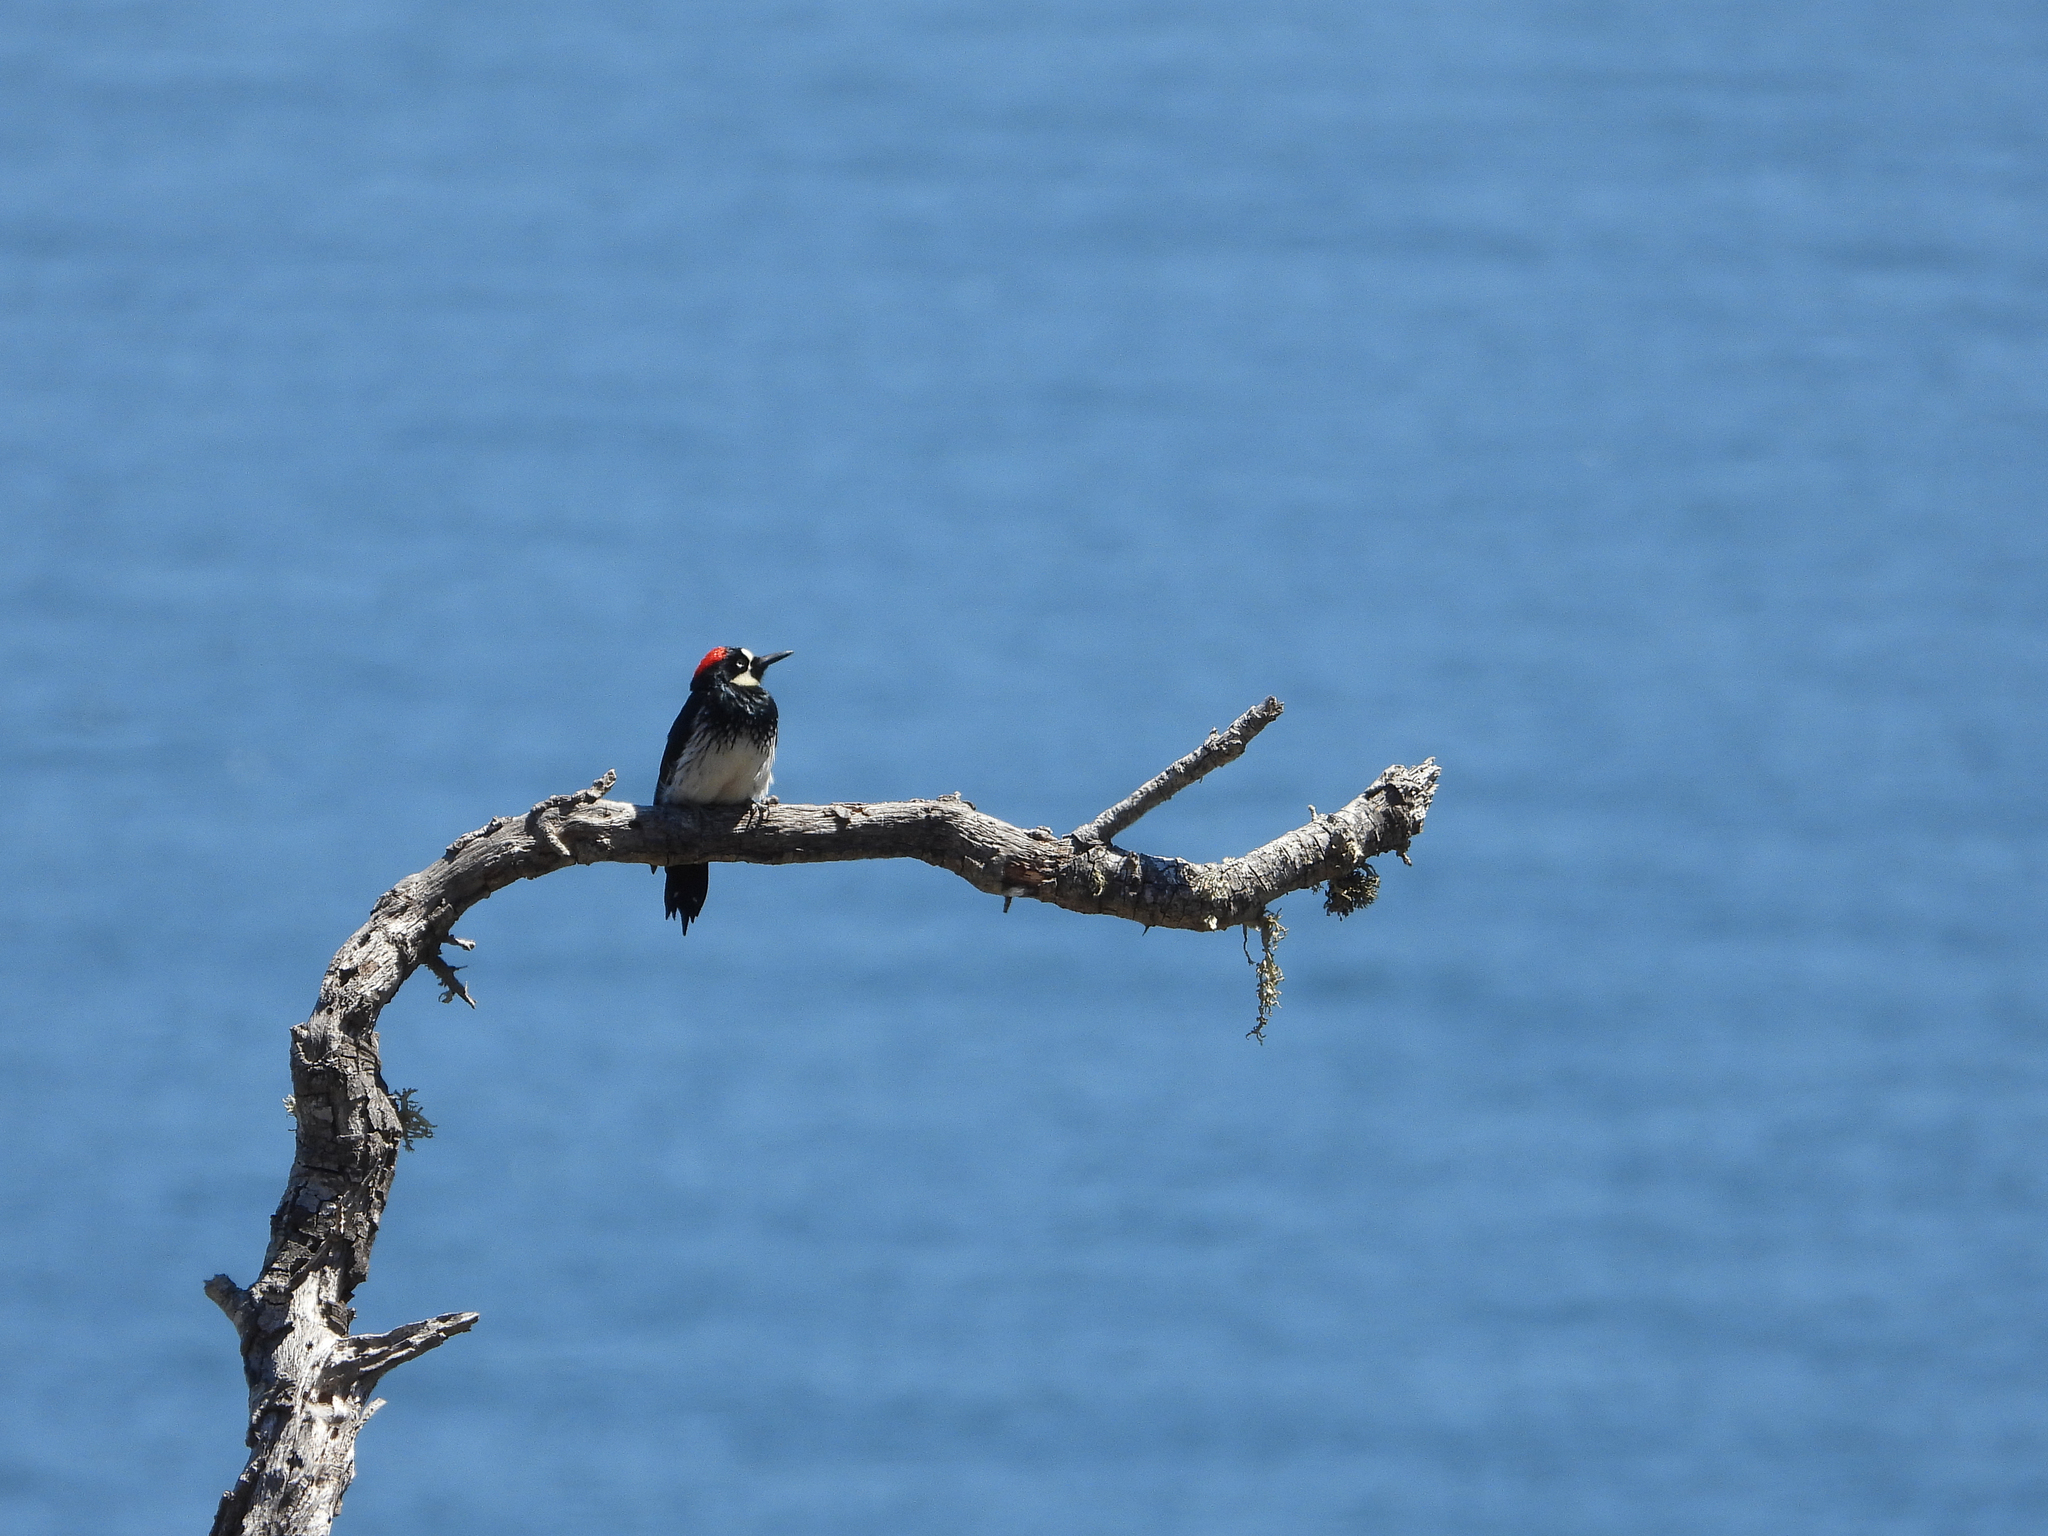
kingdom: Animalia
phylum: Chordata
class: Aves
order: Piciformes
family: Picidae
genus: Melanerpes
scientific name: Melanerpes formicivorus
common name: Acorn woodpecker
